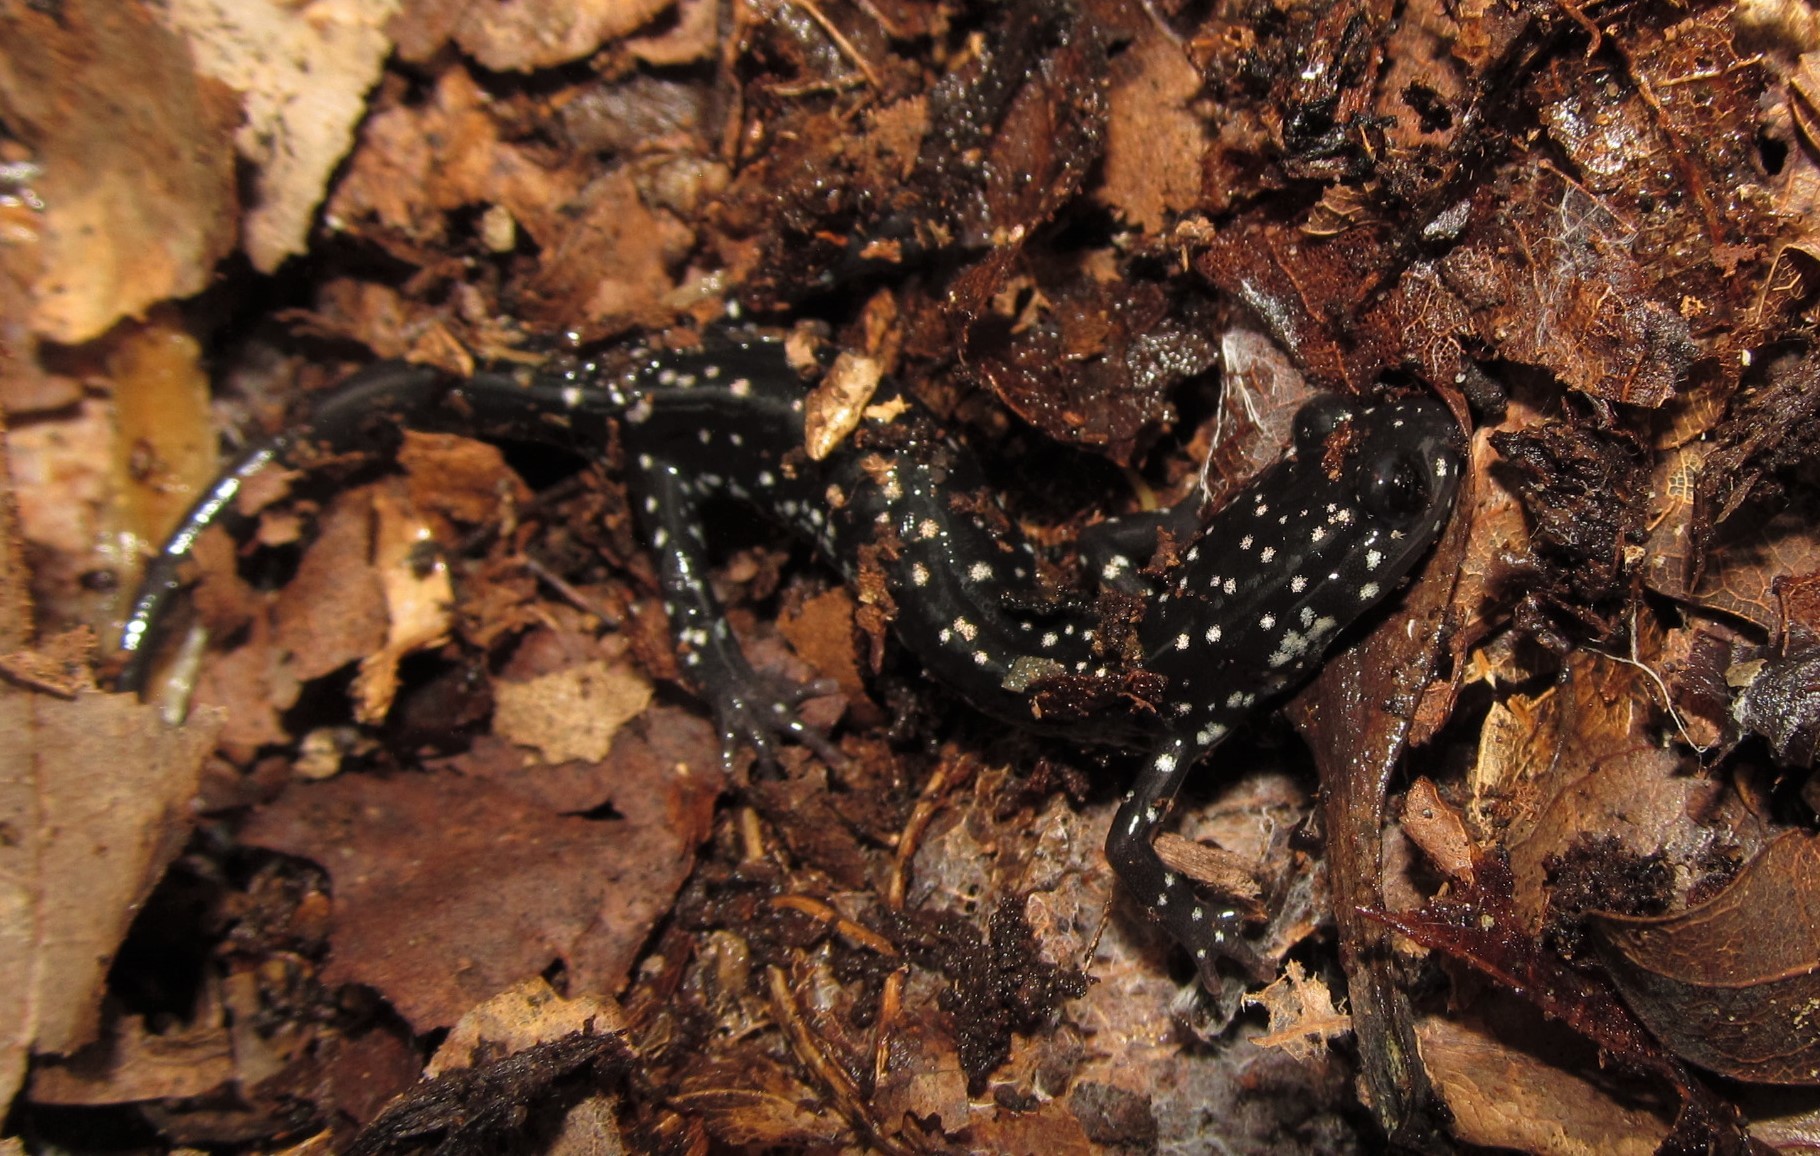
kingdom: Animalia
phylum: Chordata
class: Amphibia
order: Caudata
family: Plethodontidae
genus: Plethodon
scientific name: Plethodon glutinosus
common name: Northern slimy salamander
